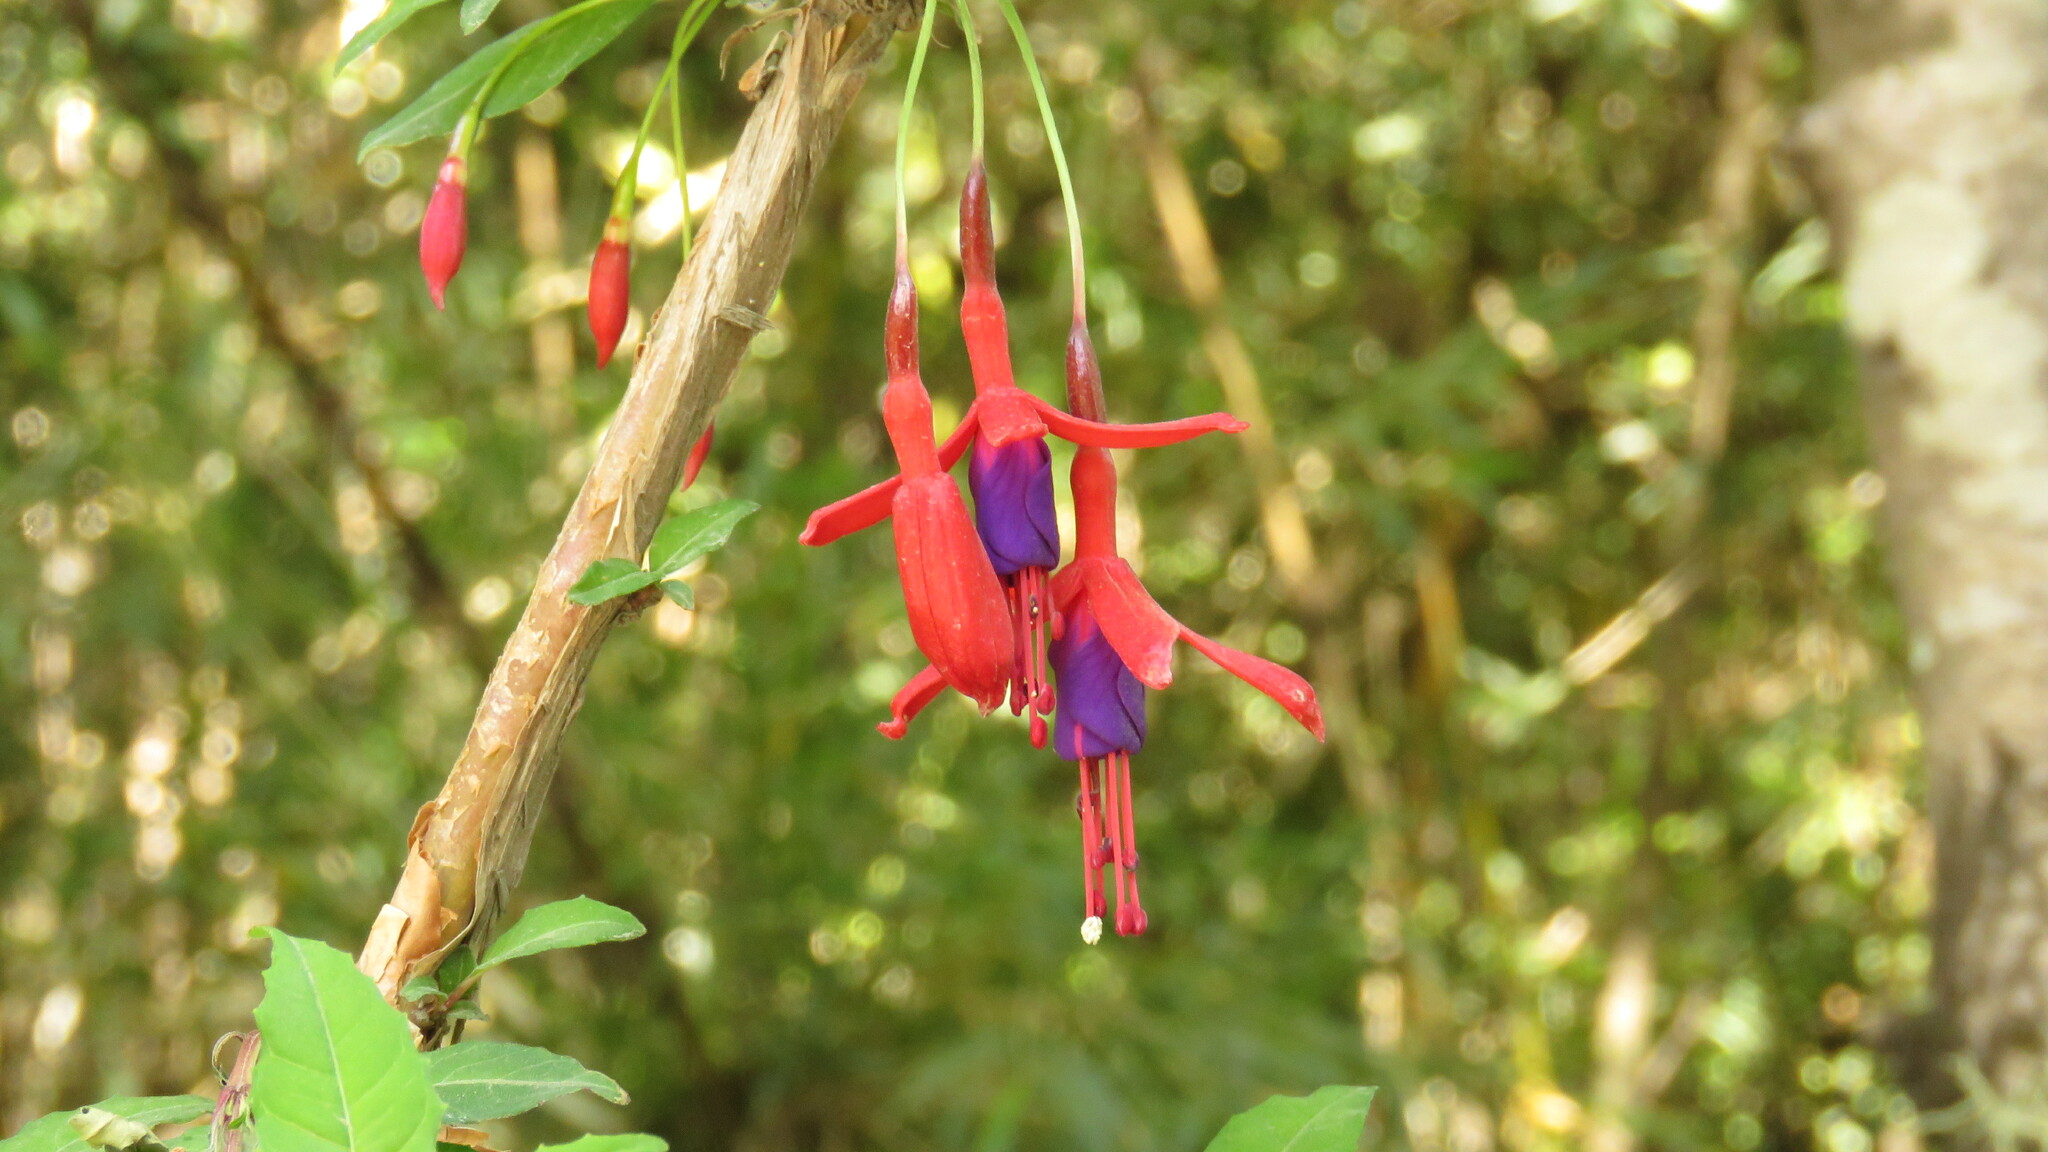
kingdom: Plantae
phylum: Tracheophyta
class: Magnoliopsida
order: Myrtales
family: Onagraceae
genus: Fuchsia
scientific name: Fuchsia magellanica
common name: Hardy fuchsia
